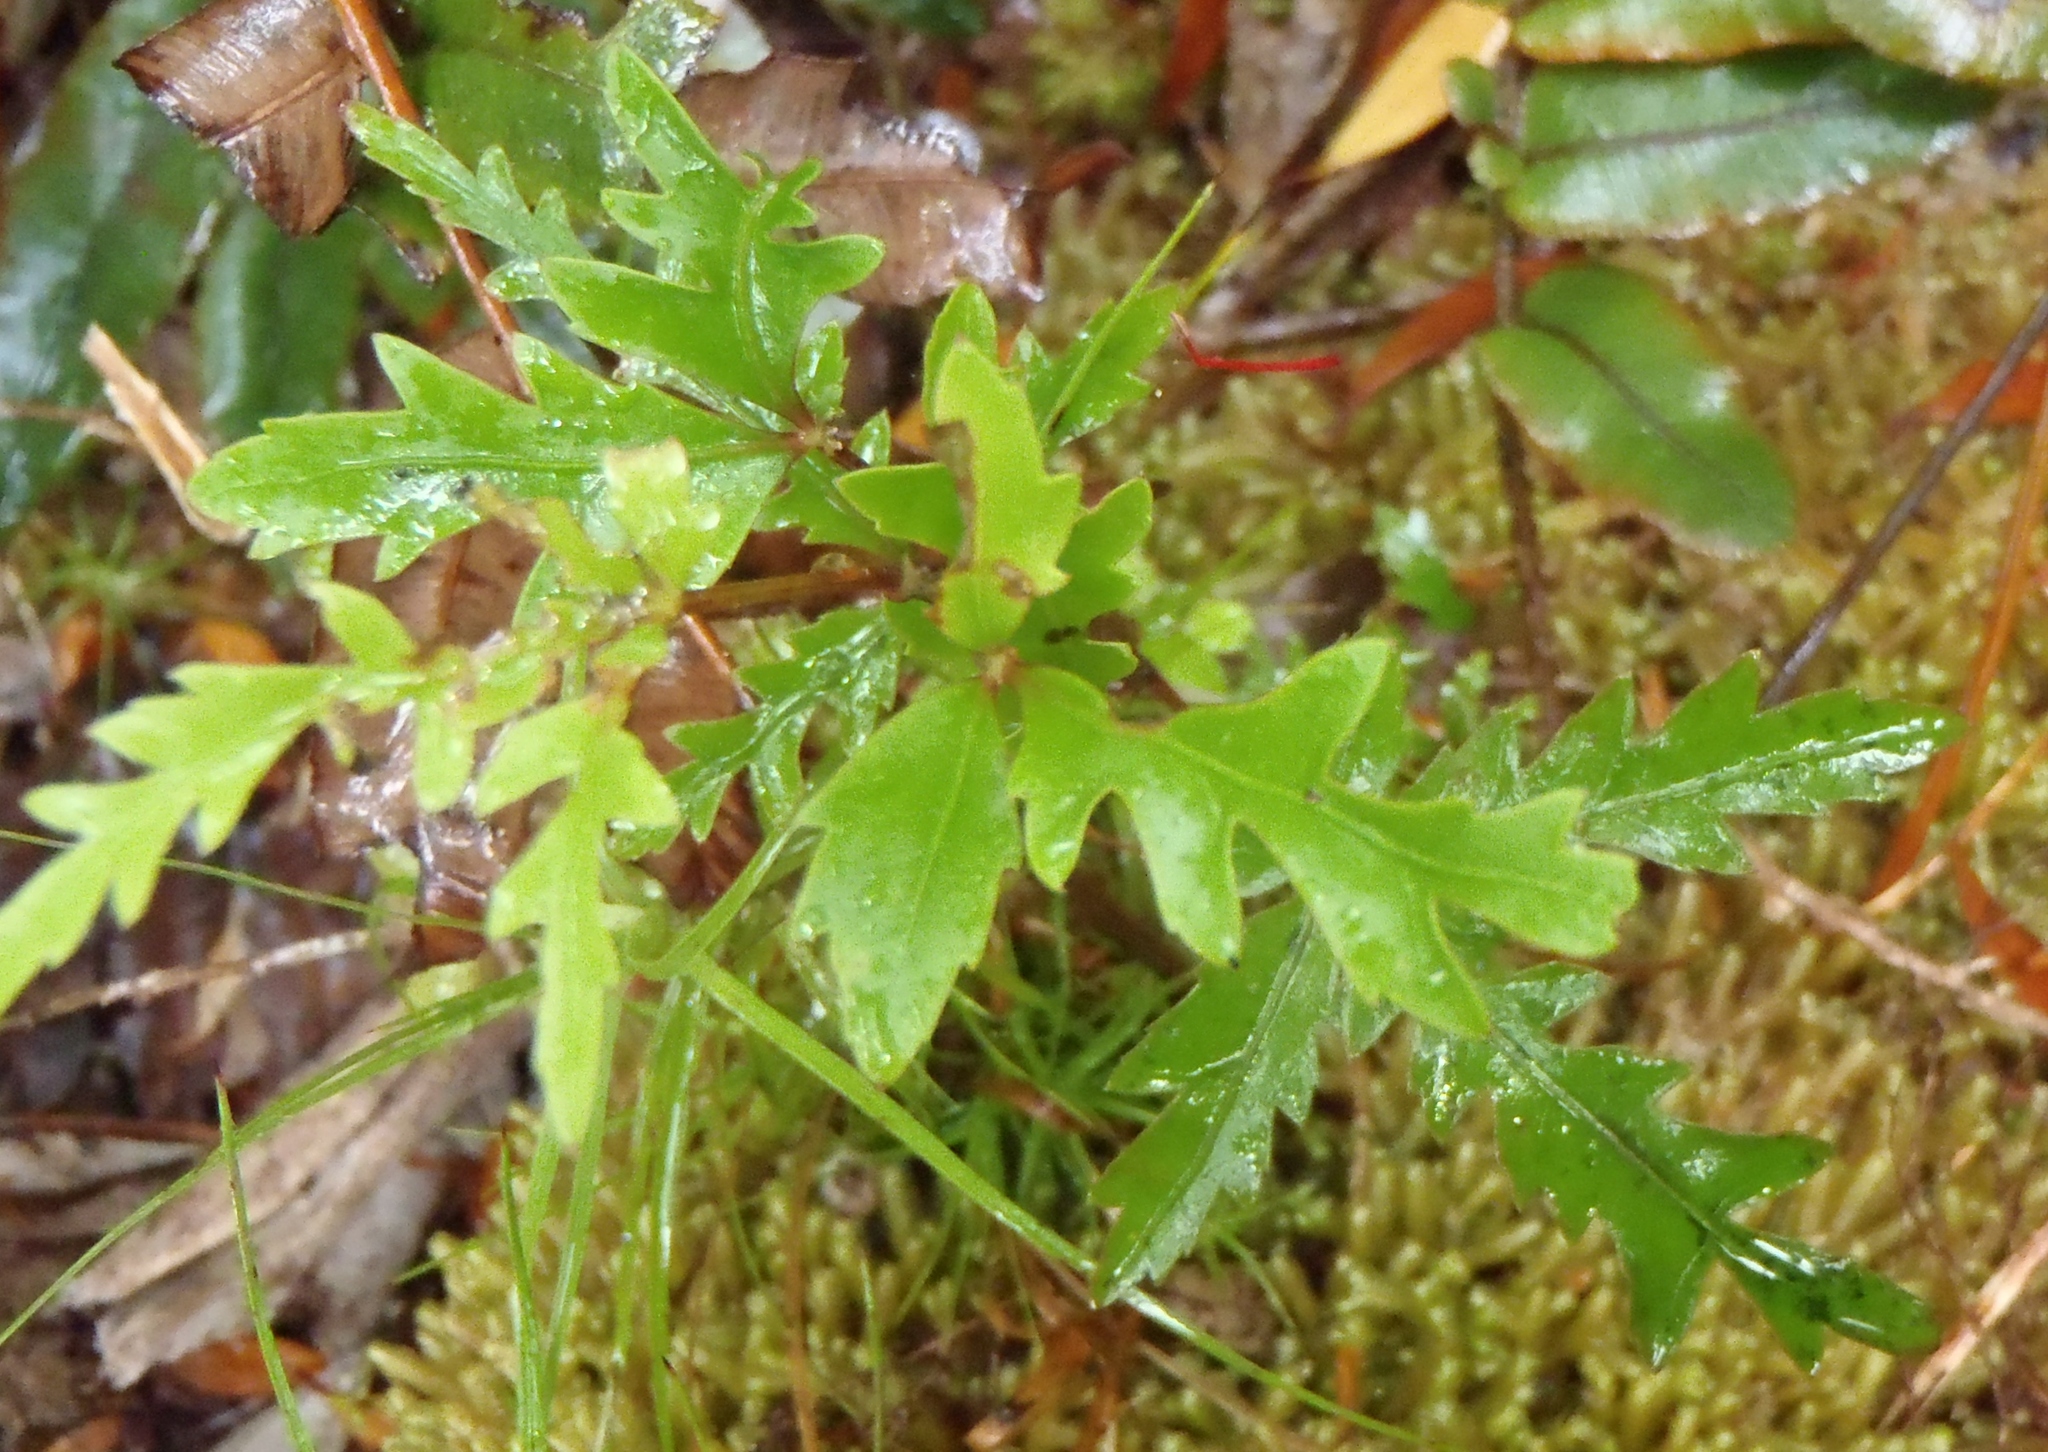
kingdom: Plantae
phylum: Tracheophyta
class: Magnoliopsida
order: Apiales
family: Araliaceae
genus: Raukaua
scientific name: Raukaua edgerleyi
